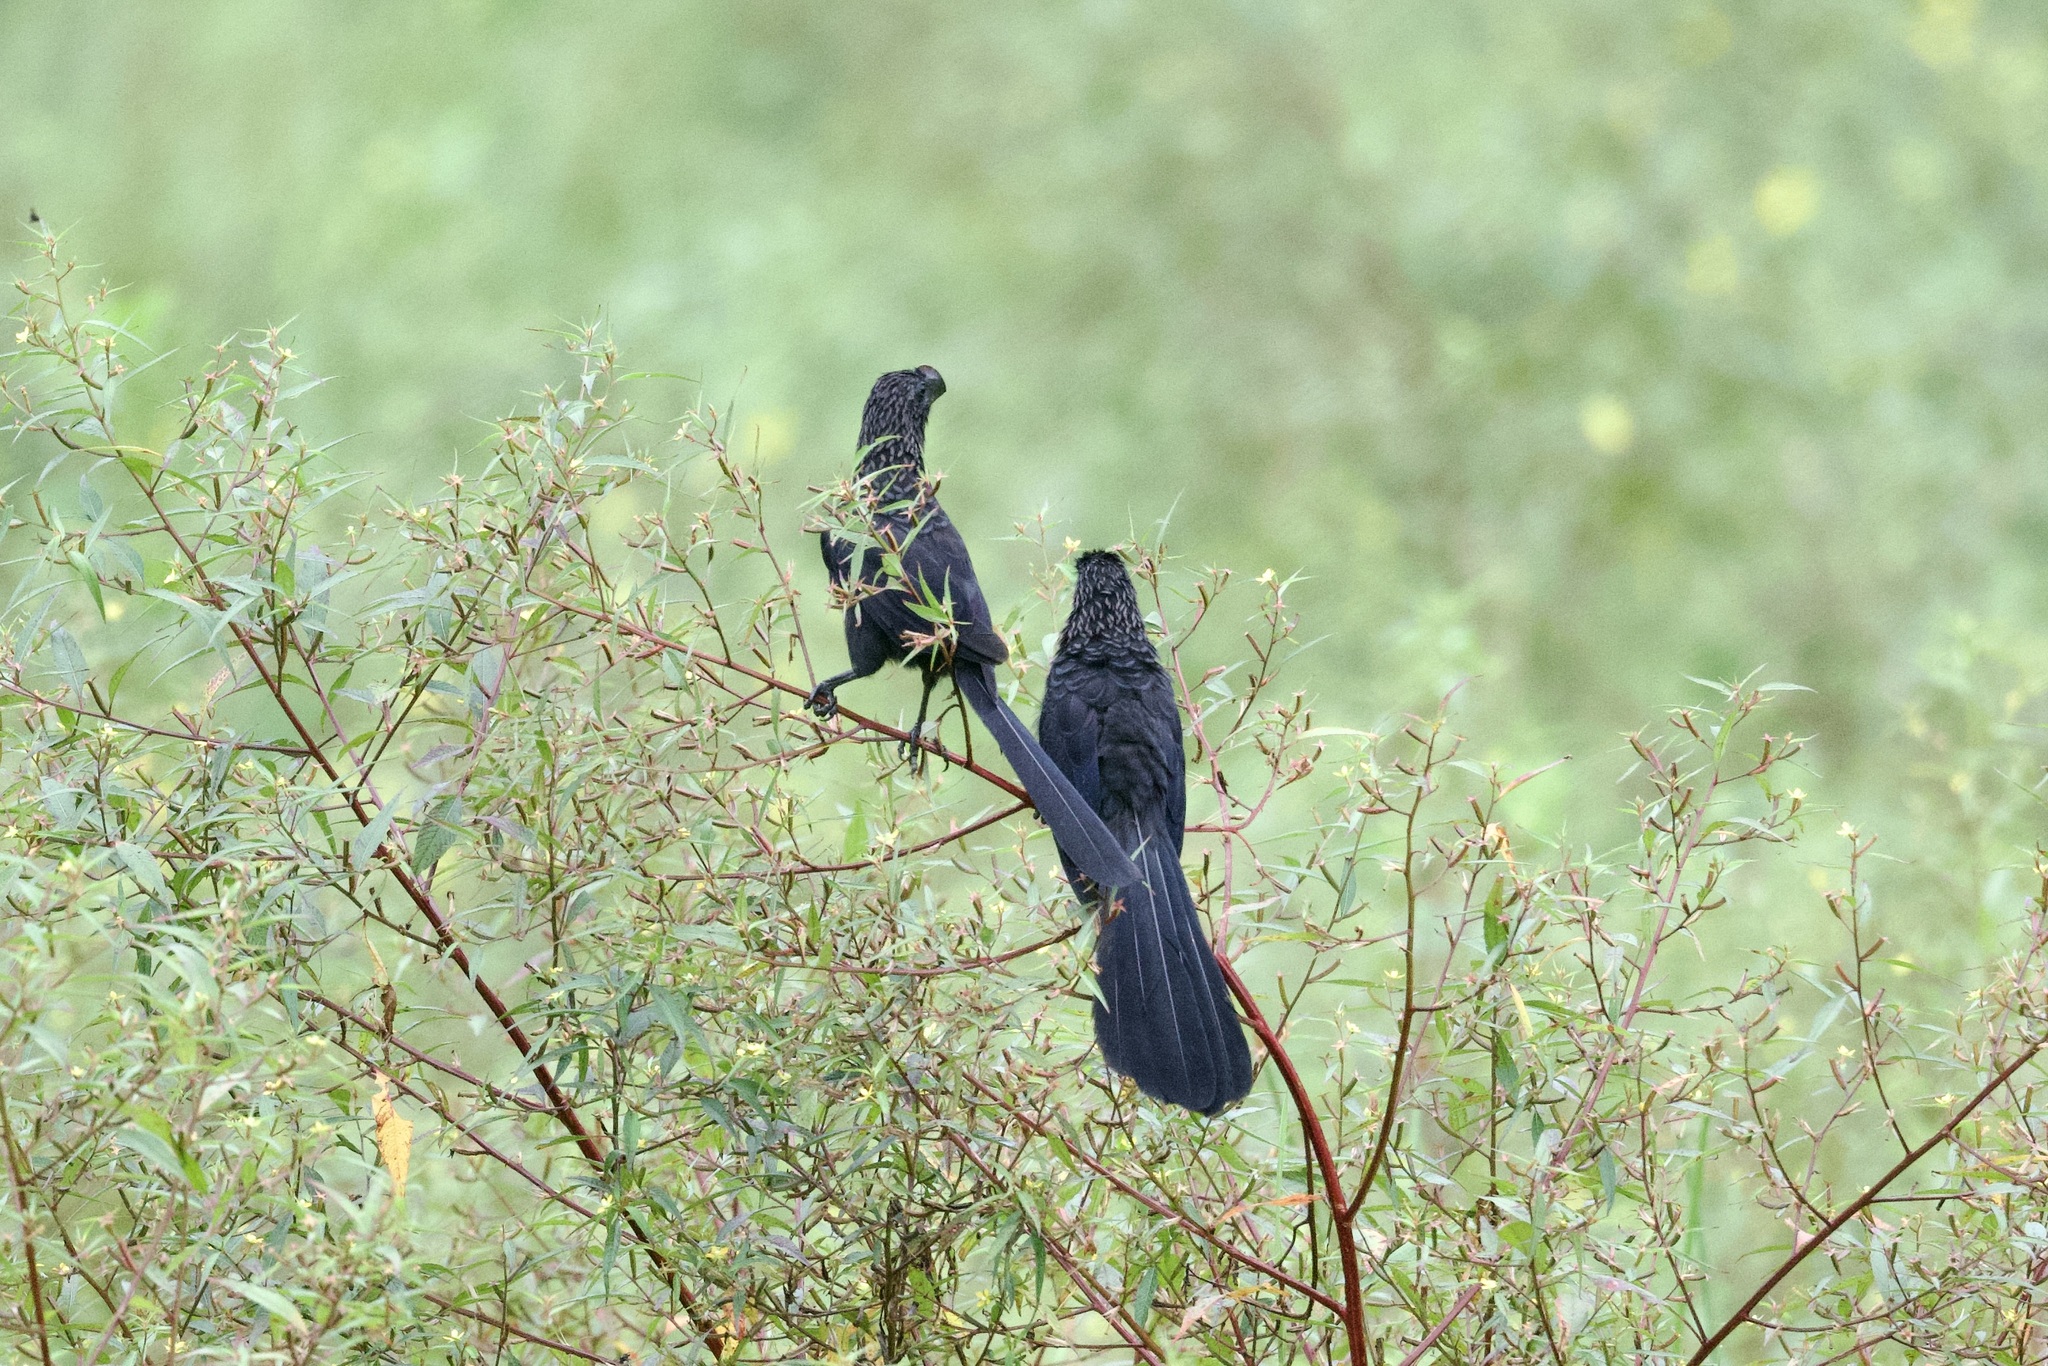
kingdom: Animalia
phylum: Chordata
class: Aves
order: Cuculiformes
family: Cuculidae
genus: Crotophaga
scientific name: Crotophaga ani
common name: Smooth-billed ani
